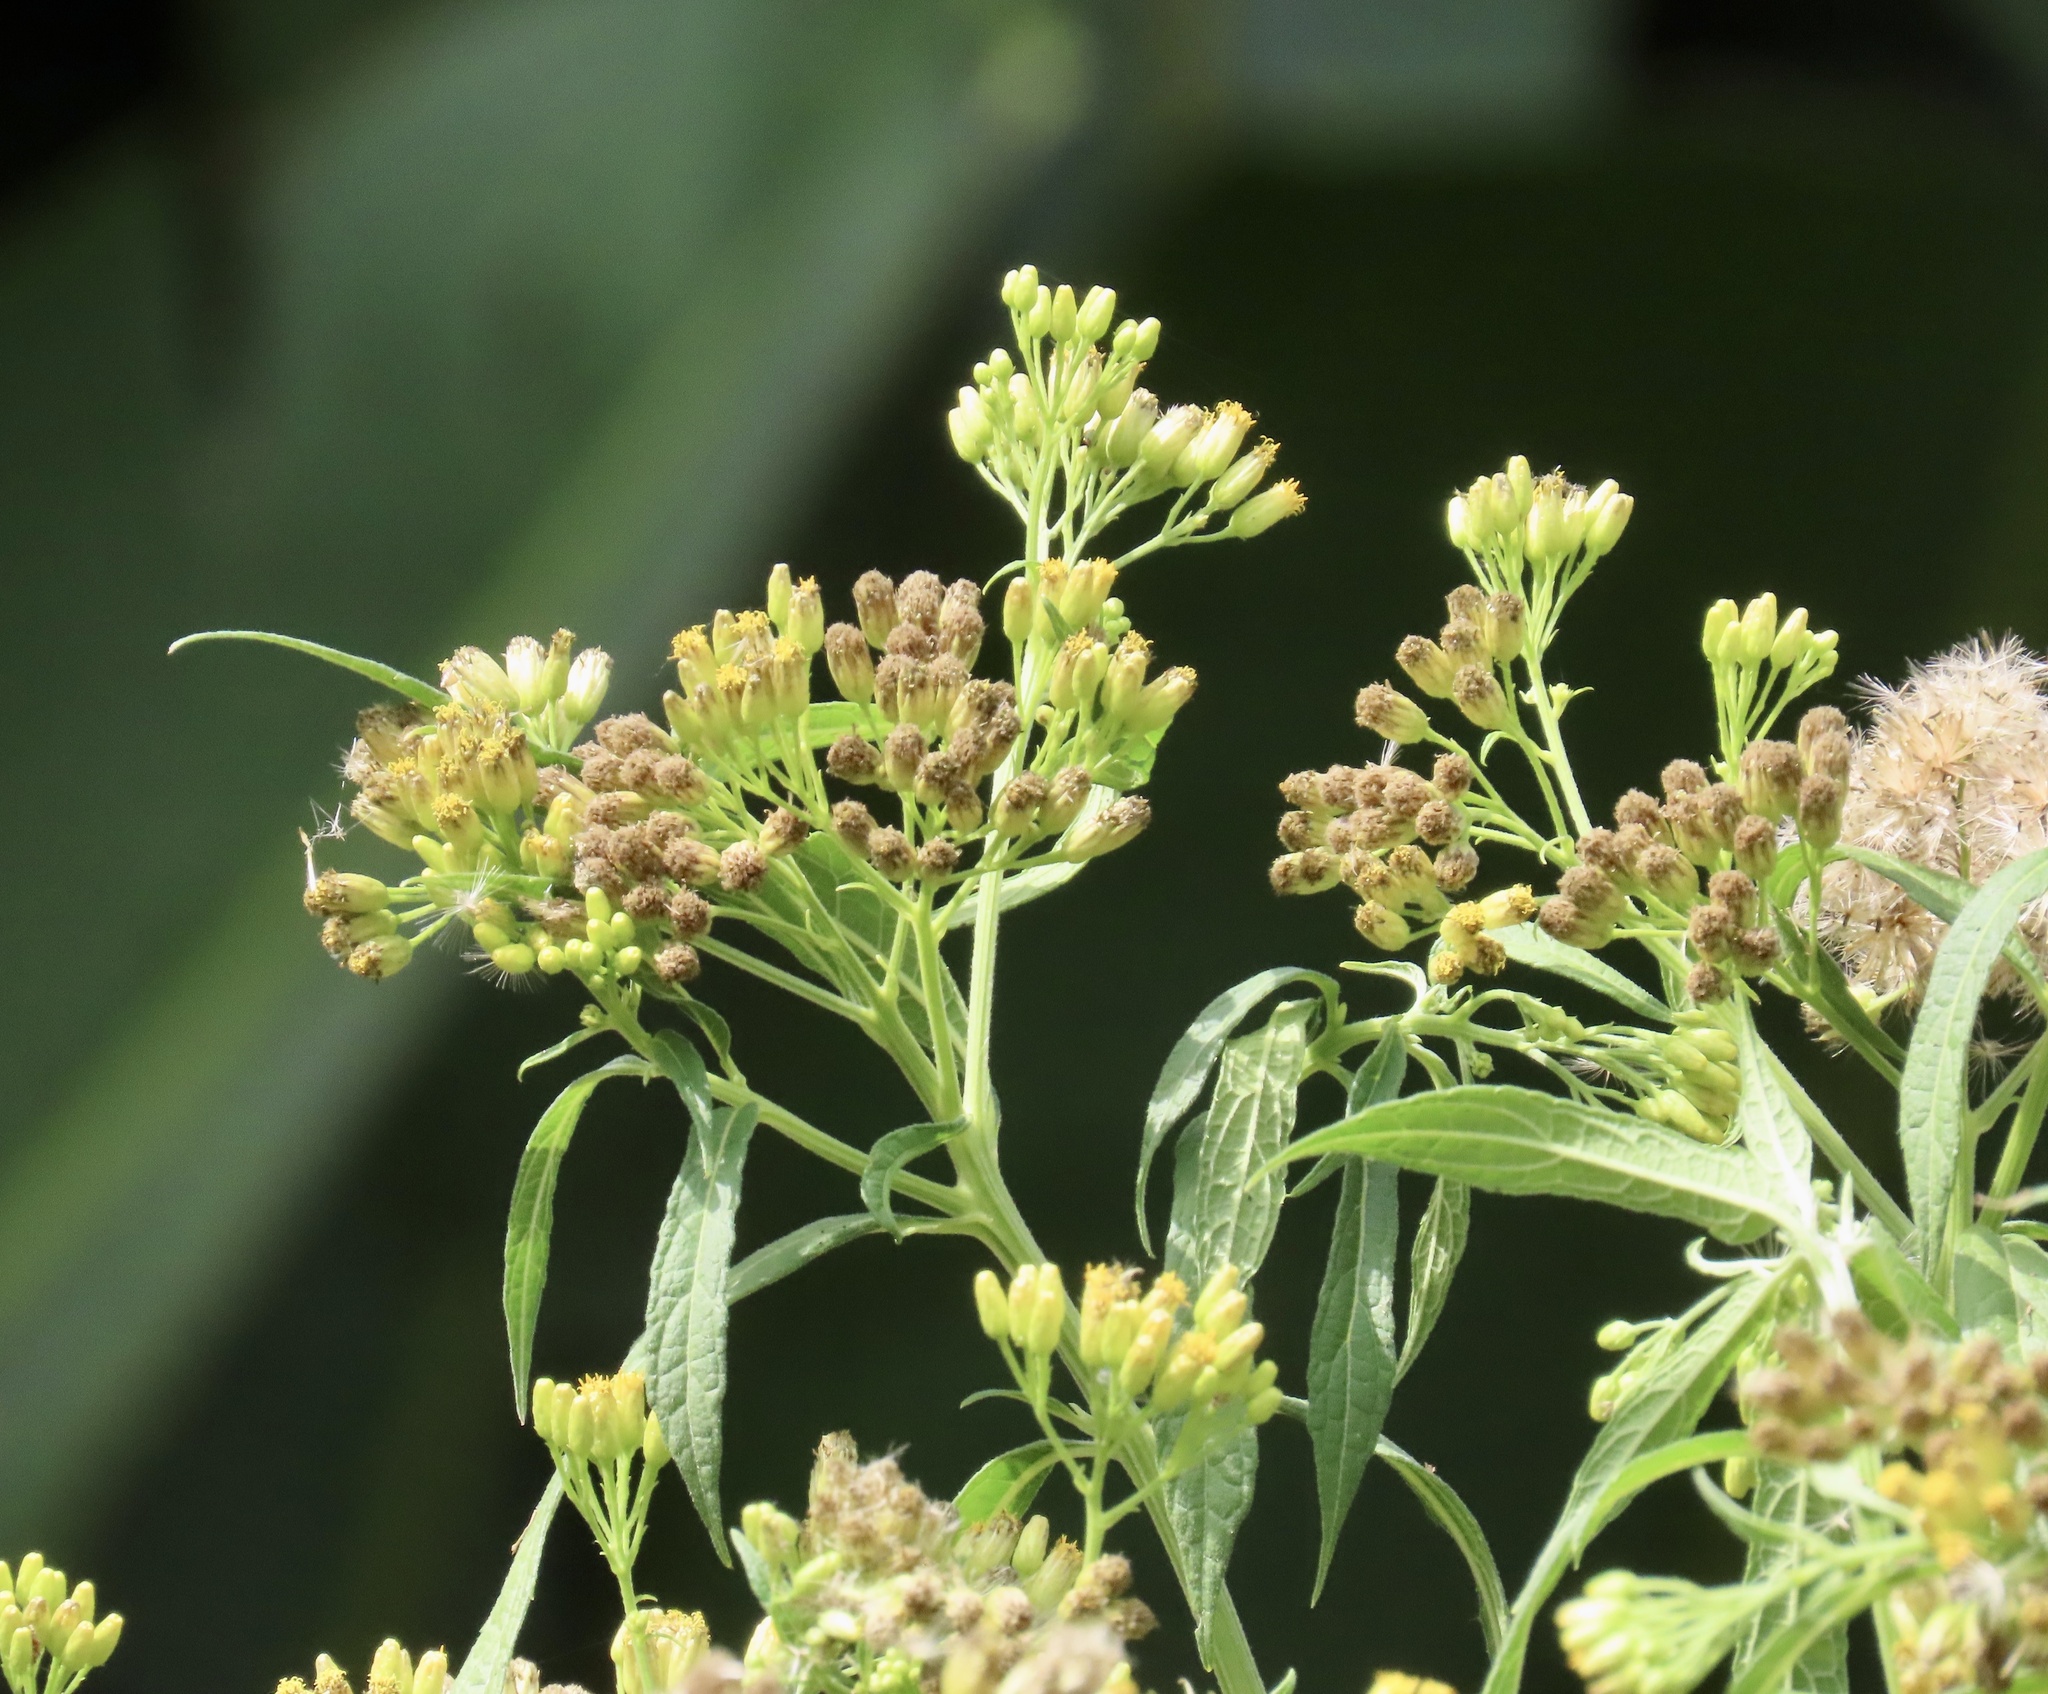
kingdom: Plantae
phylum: Tracheophyta
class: Magnoliopsida
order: Asterales
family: Asteraceae
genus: Neurolaena
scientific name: Neurolaena lobata
